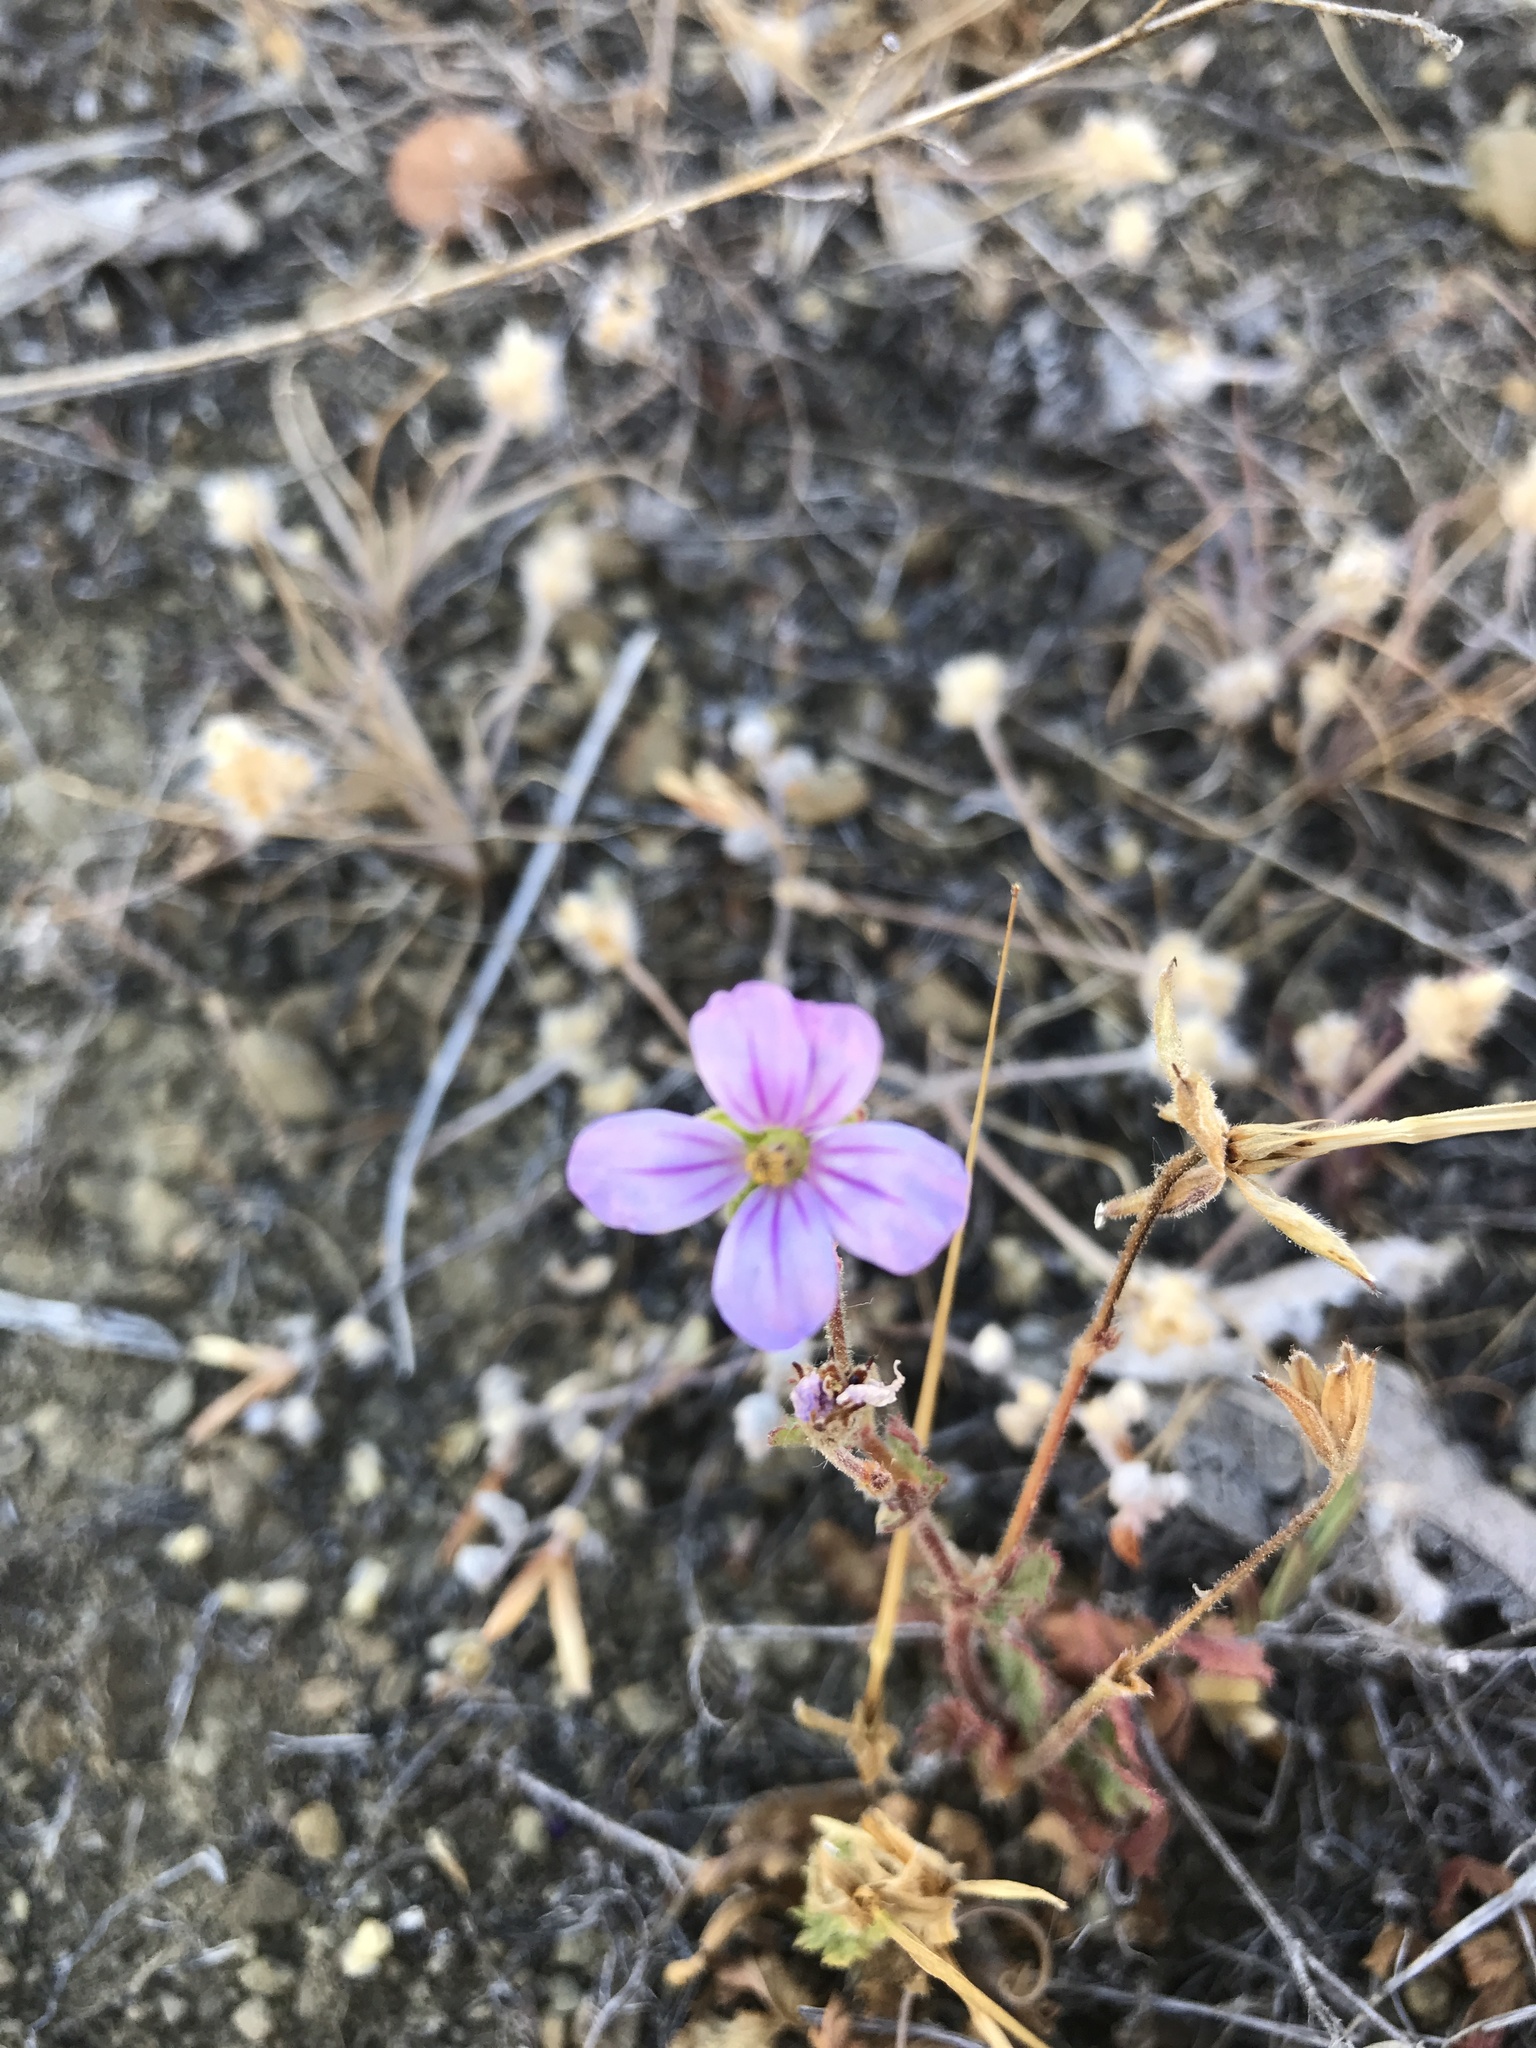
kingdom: Plantae
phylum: Tracheophyta
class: Magnoliopsida
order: Geraniales
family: Geraniaceae
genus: Erodium
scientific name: Erodium botrys
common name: Mediterranean stork's-bill
